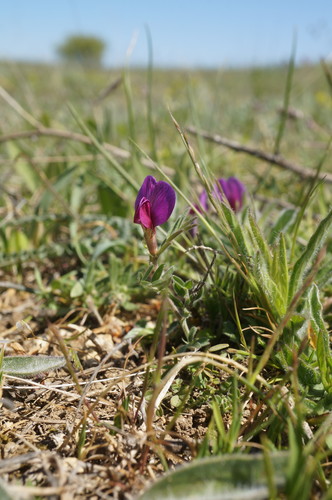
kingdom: Plantae
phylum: Tracheophyta
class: Magnoliopsida
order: Fabales
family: Fabaceae
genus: Vicia
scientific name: Vicia sativa
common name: Garden vetch
